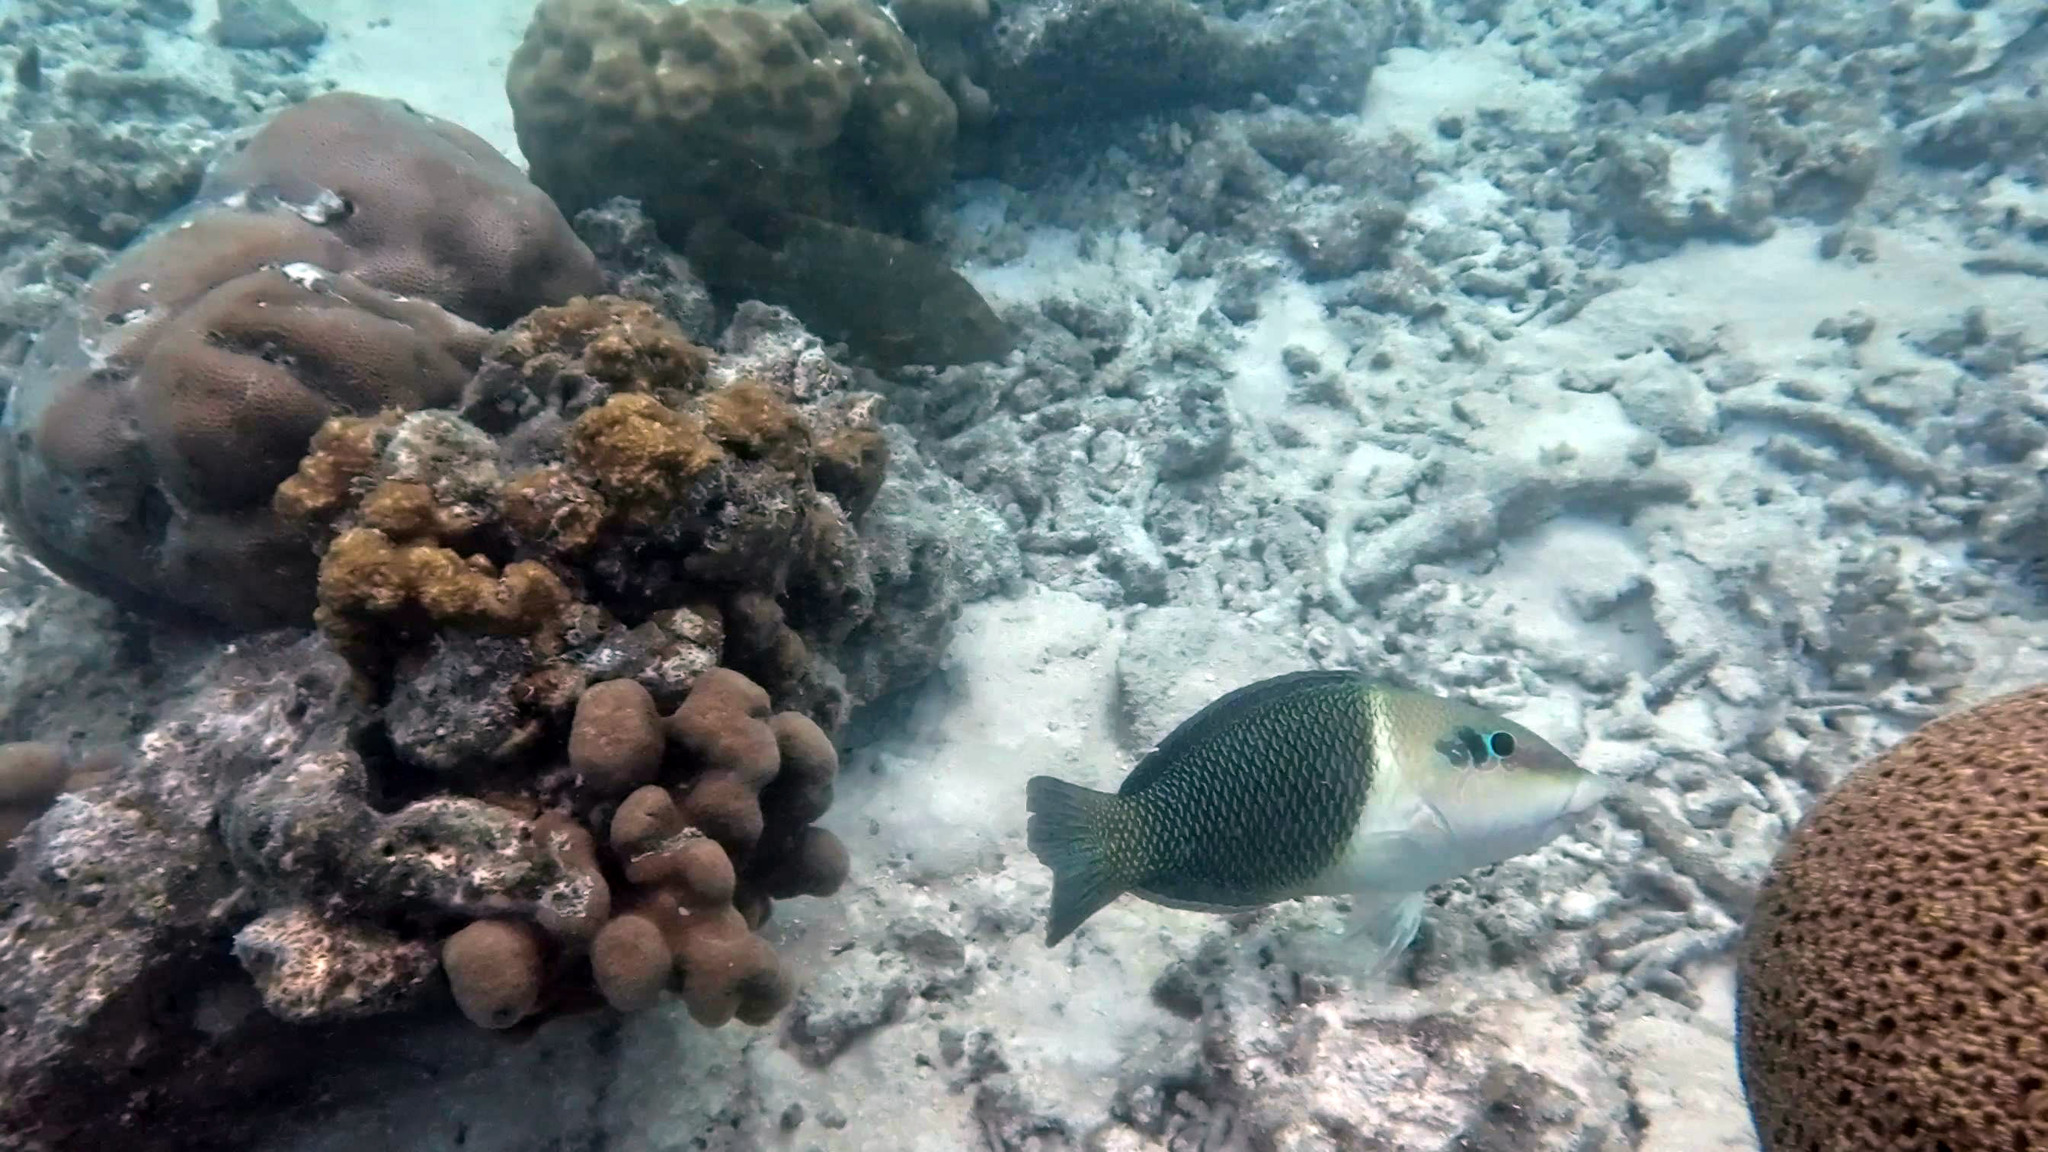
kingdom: Animalia
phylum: Chordata
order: Perciformes
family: Labridae
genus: Hemigymnus
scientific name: Hemigymnus melapterus
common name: Blackeye thicklip
